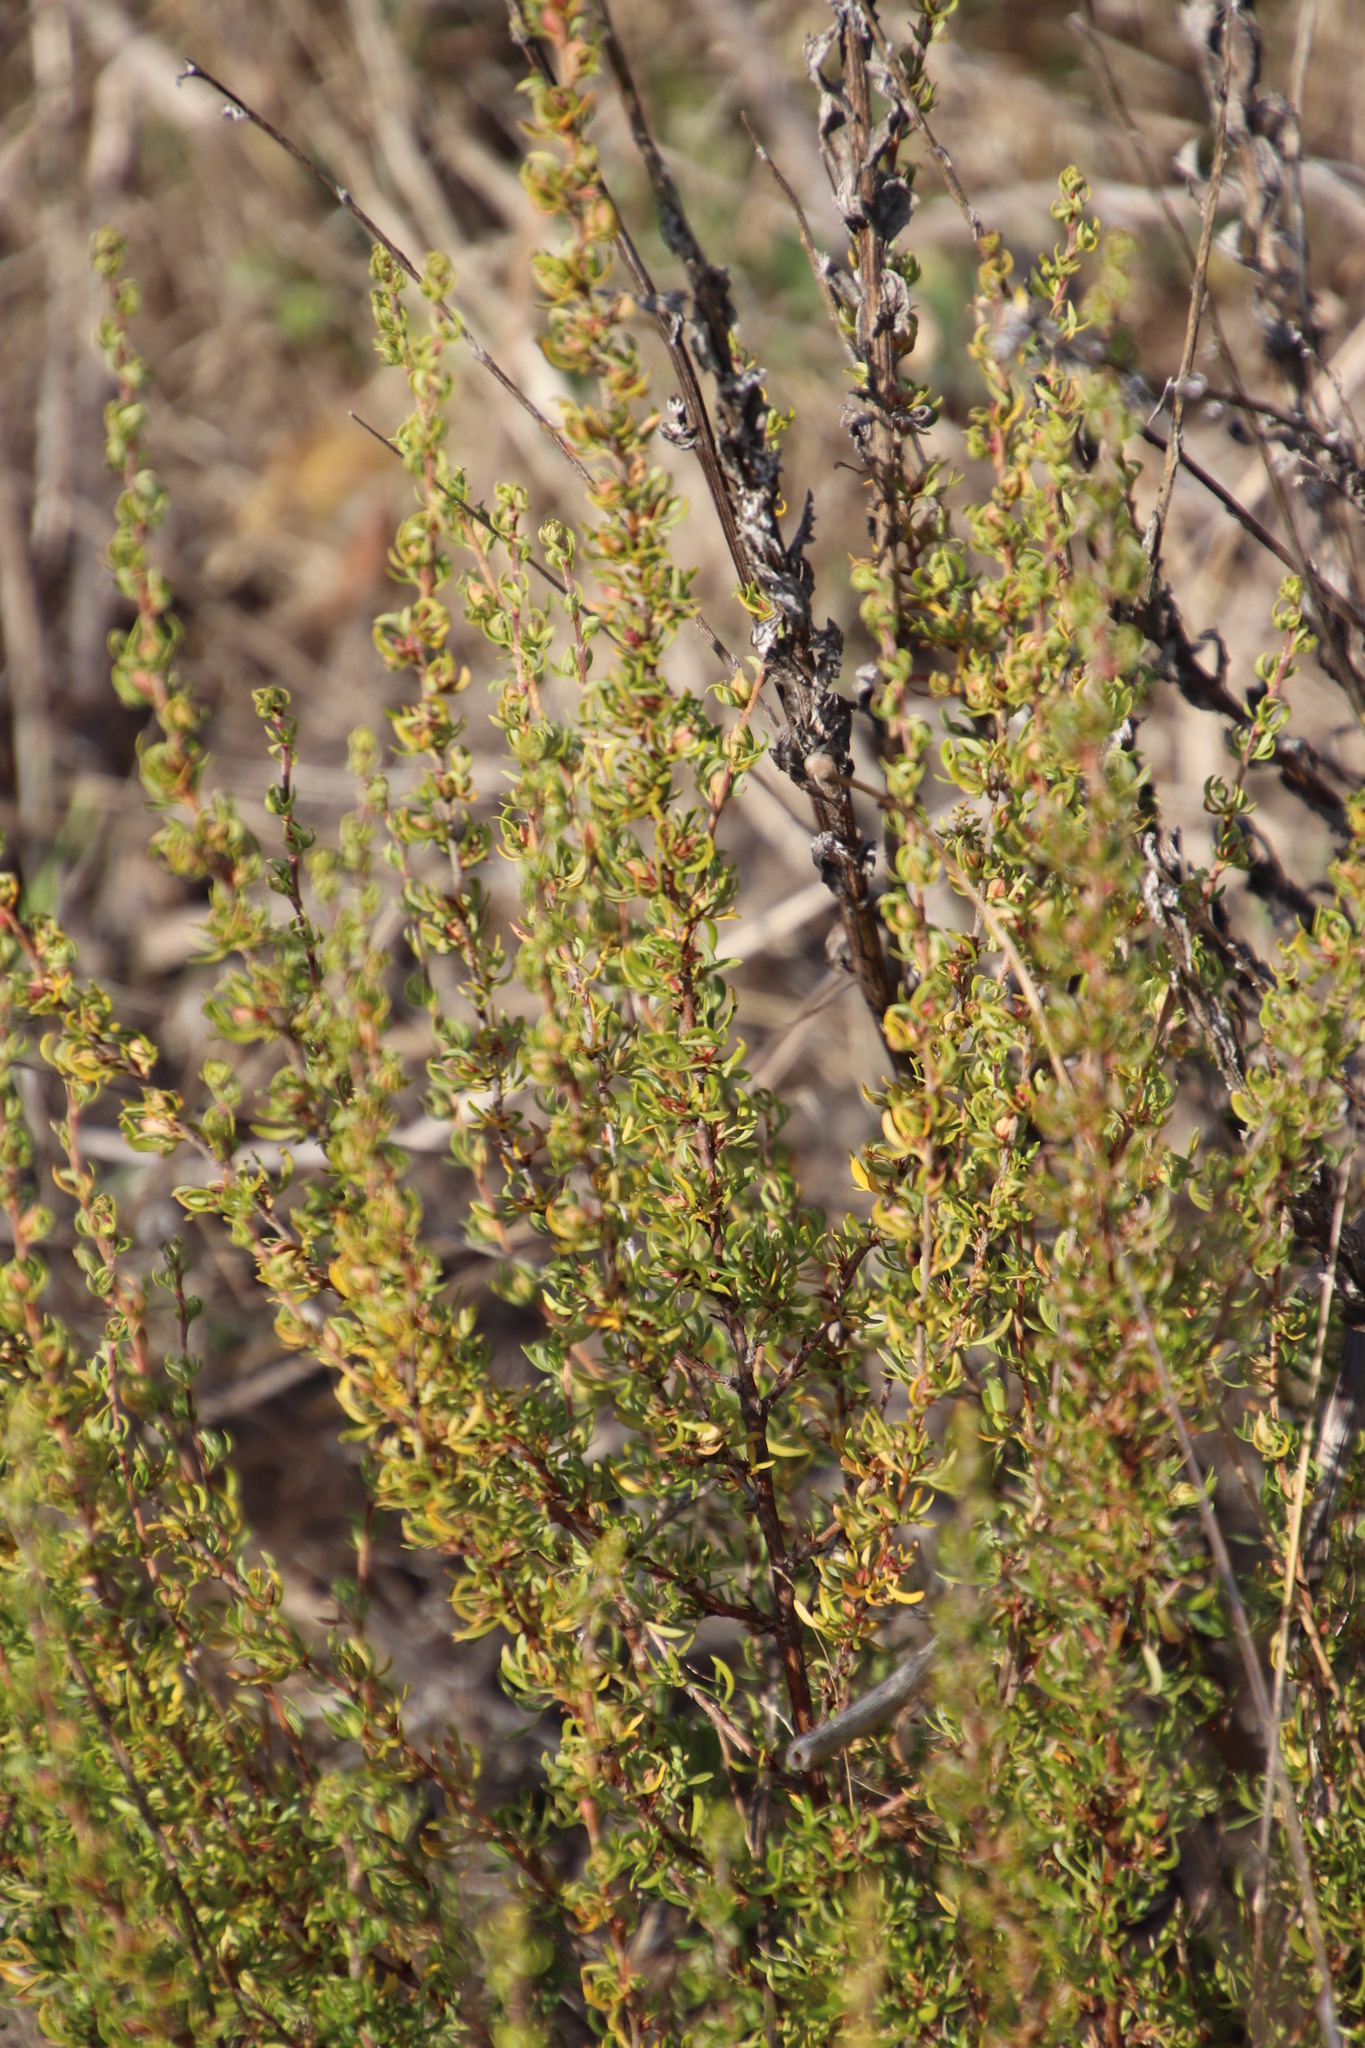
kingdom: Plantae
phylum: Tracheophyta
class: Magnoliopsida
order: Rosales
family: Rosaceae
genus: Cliffortia
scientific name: Cliffortia falcata
